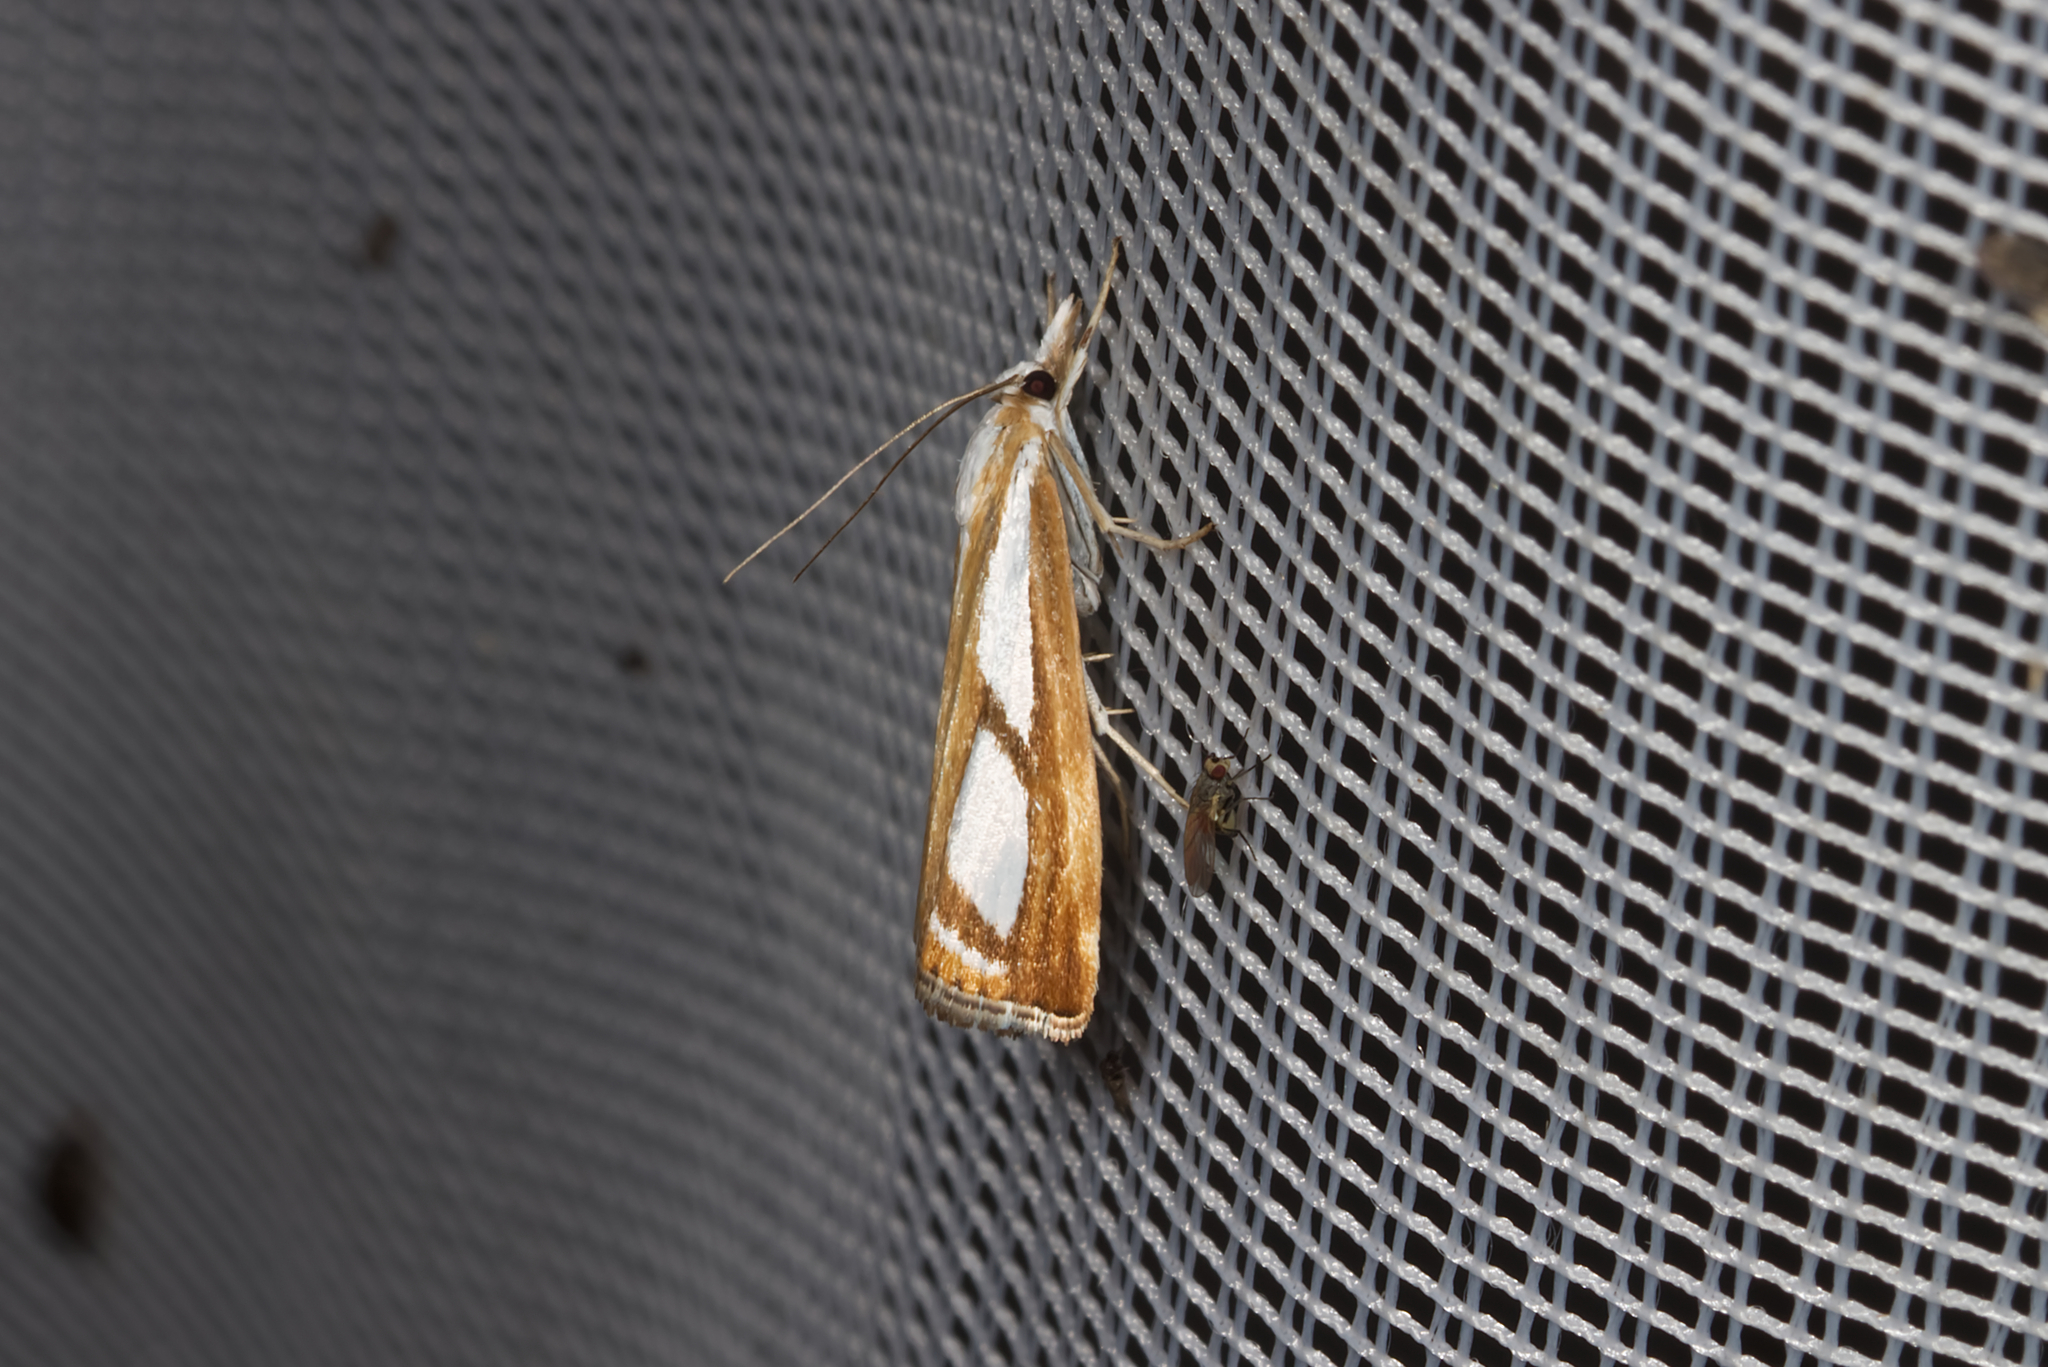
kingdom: Animalia
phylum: Arthropoda
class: Insecta
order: Lepidoptera
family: Crambidae
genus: Catoptria
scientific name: Catoptria
